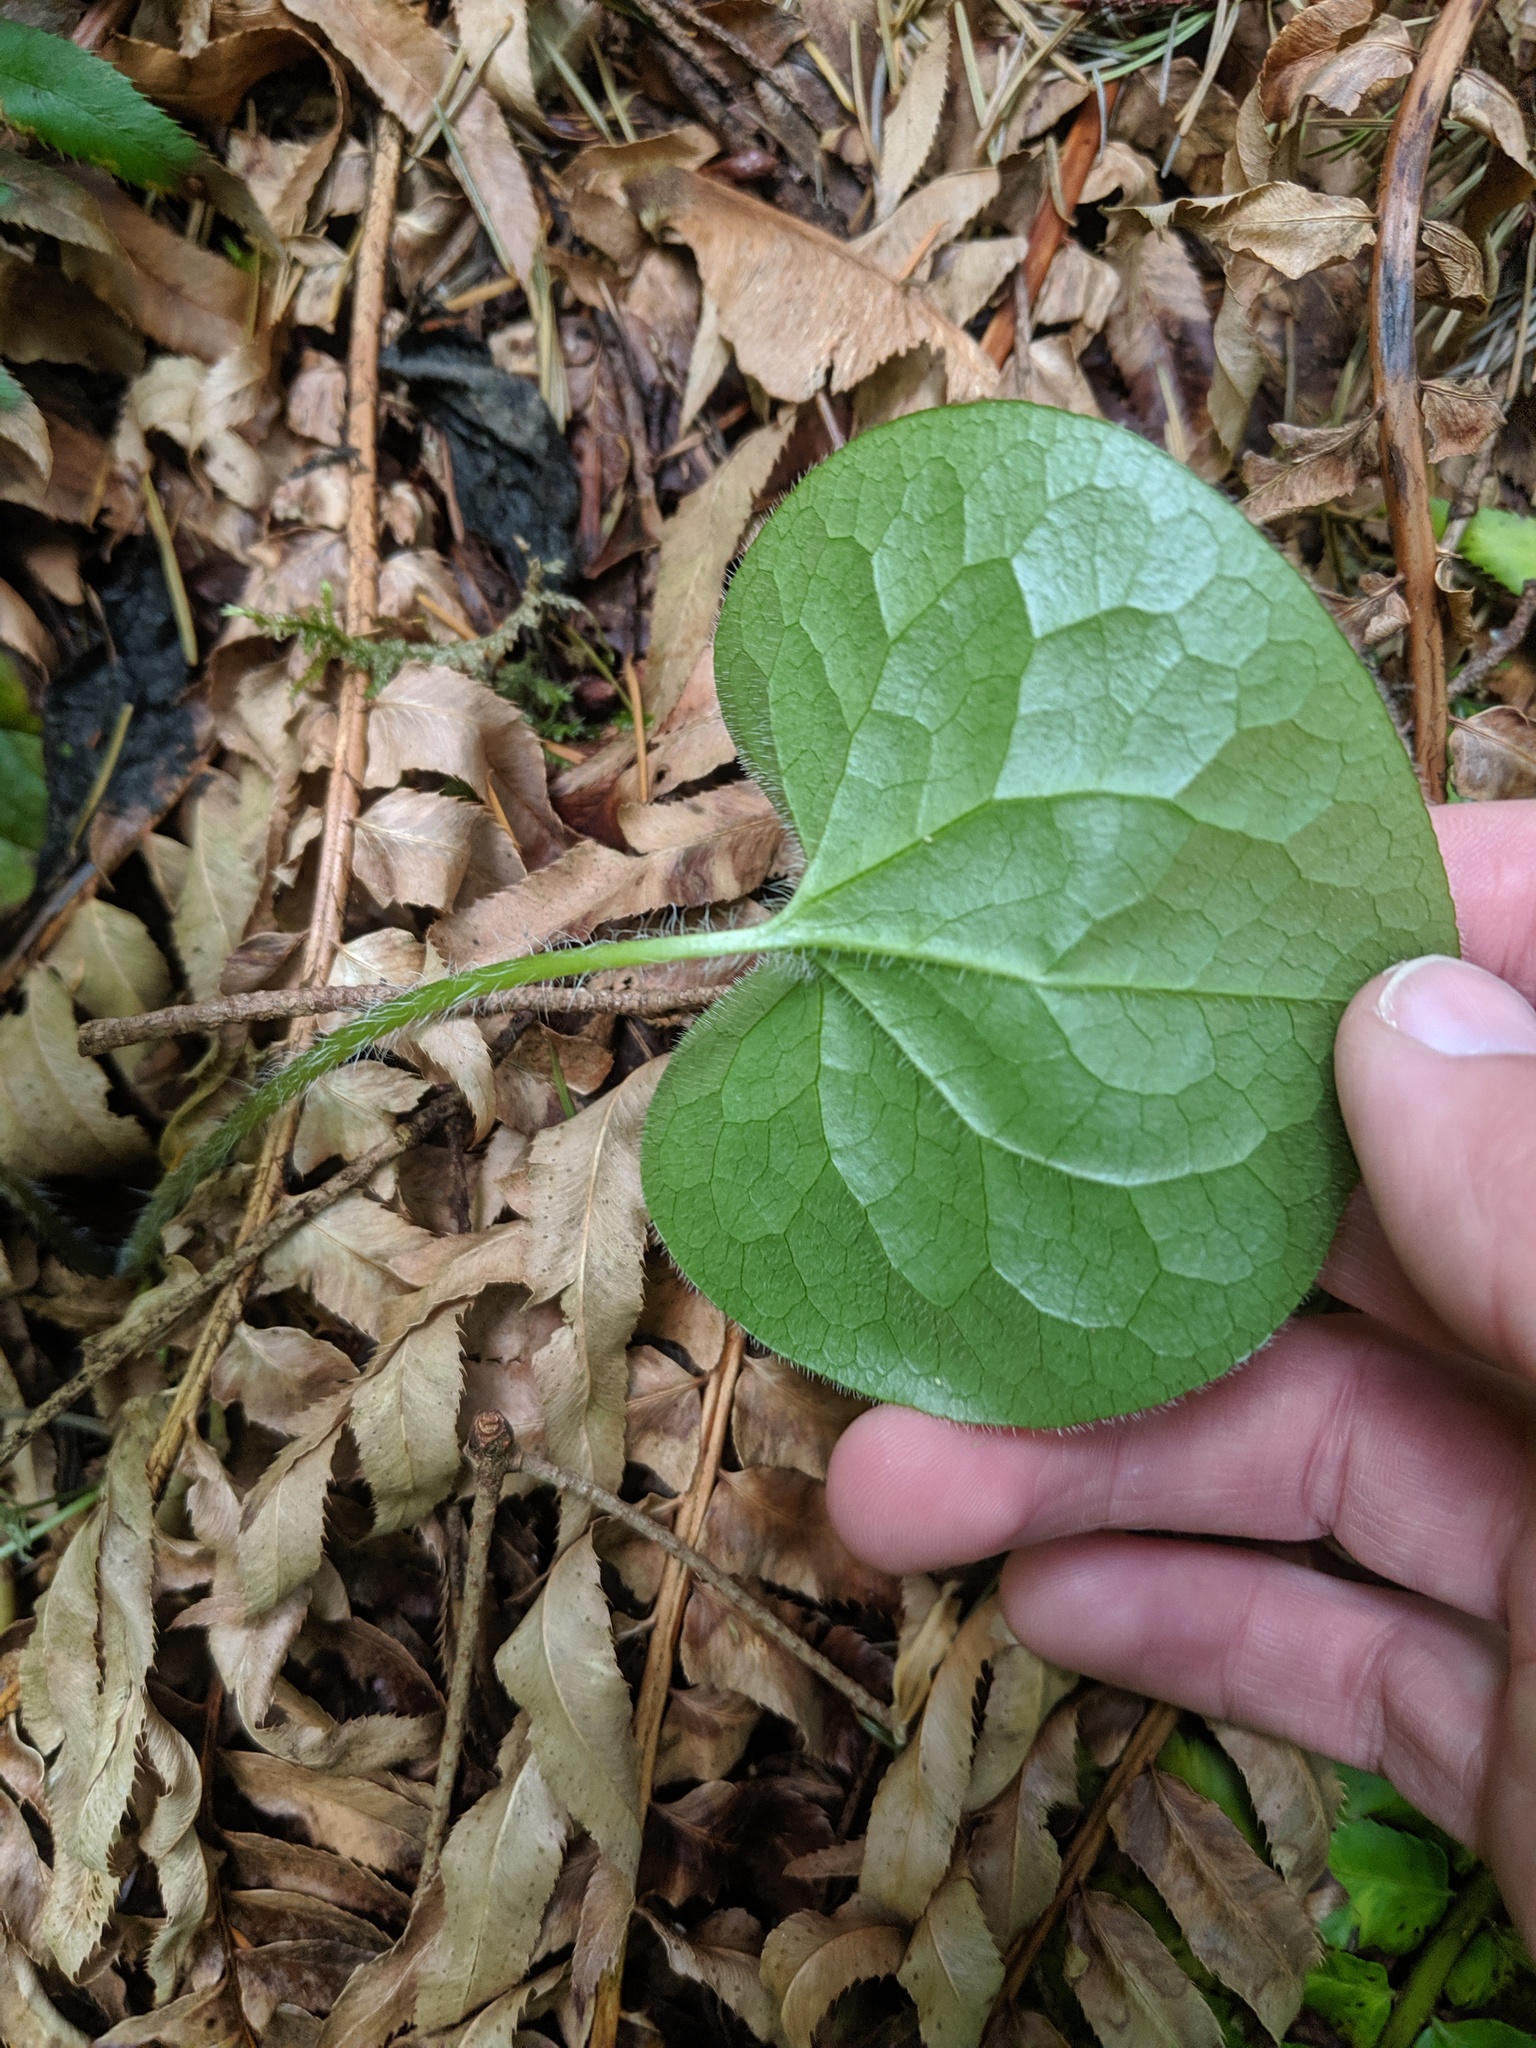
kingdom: Plantae
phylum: Tracheophyta
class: Magnoliopsida
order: Piperales
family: Aristolochiaceae
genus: Asarum
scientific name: Asarum caudatum
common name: Wild ginger
